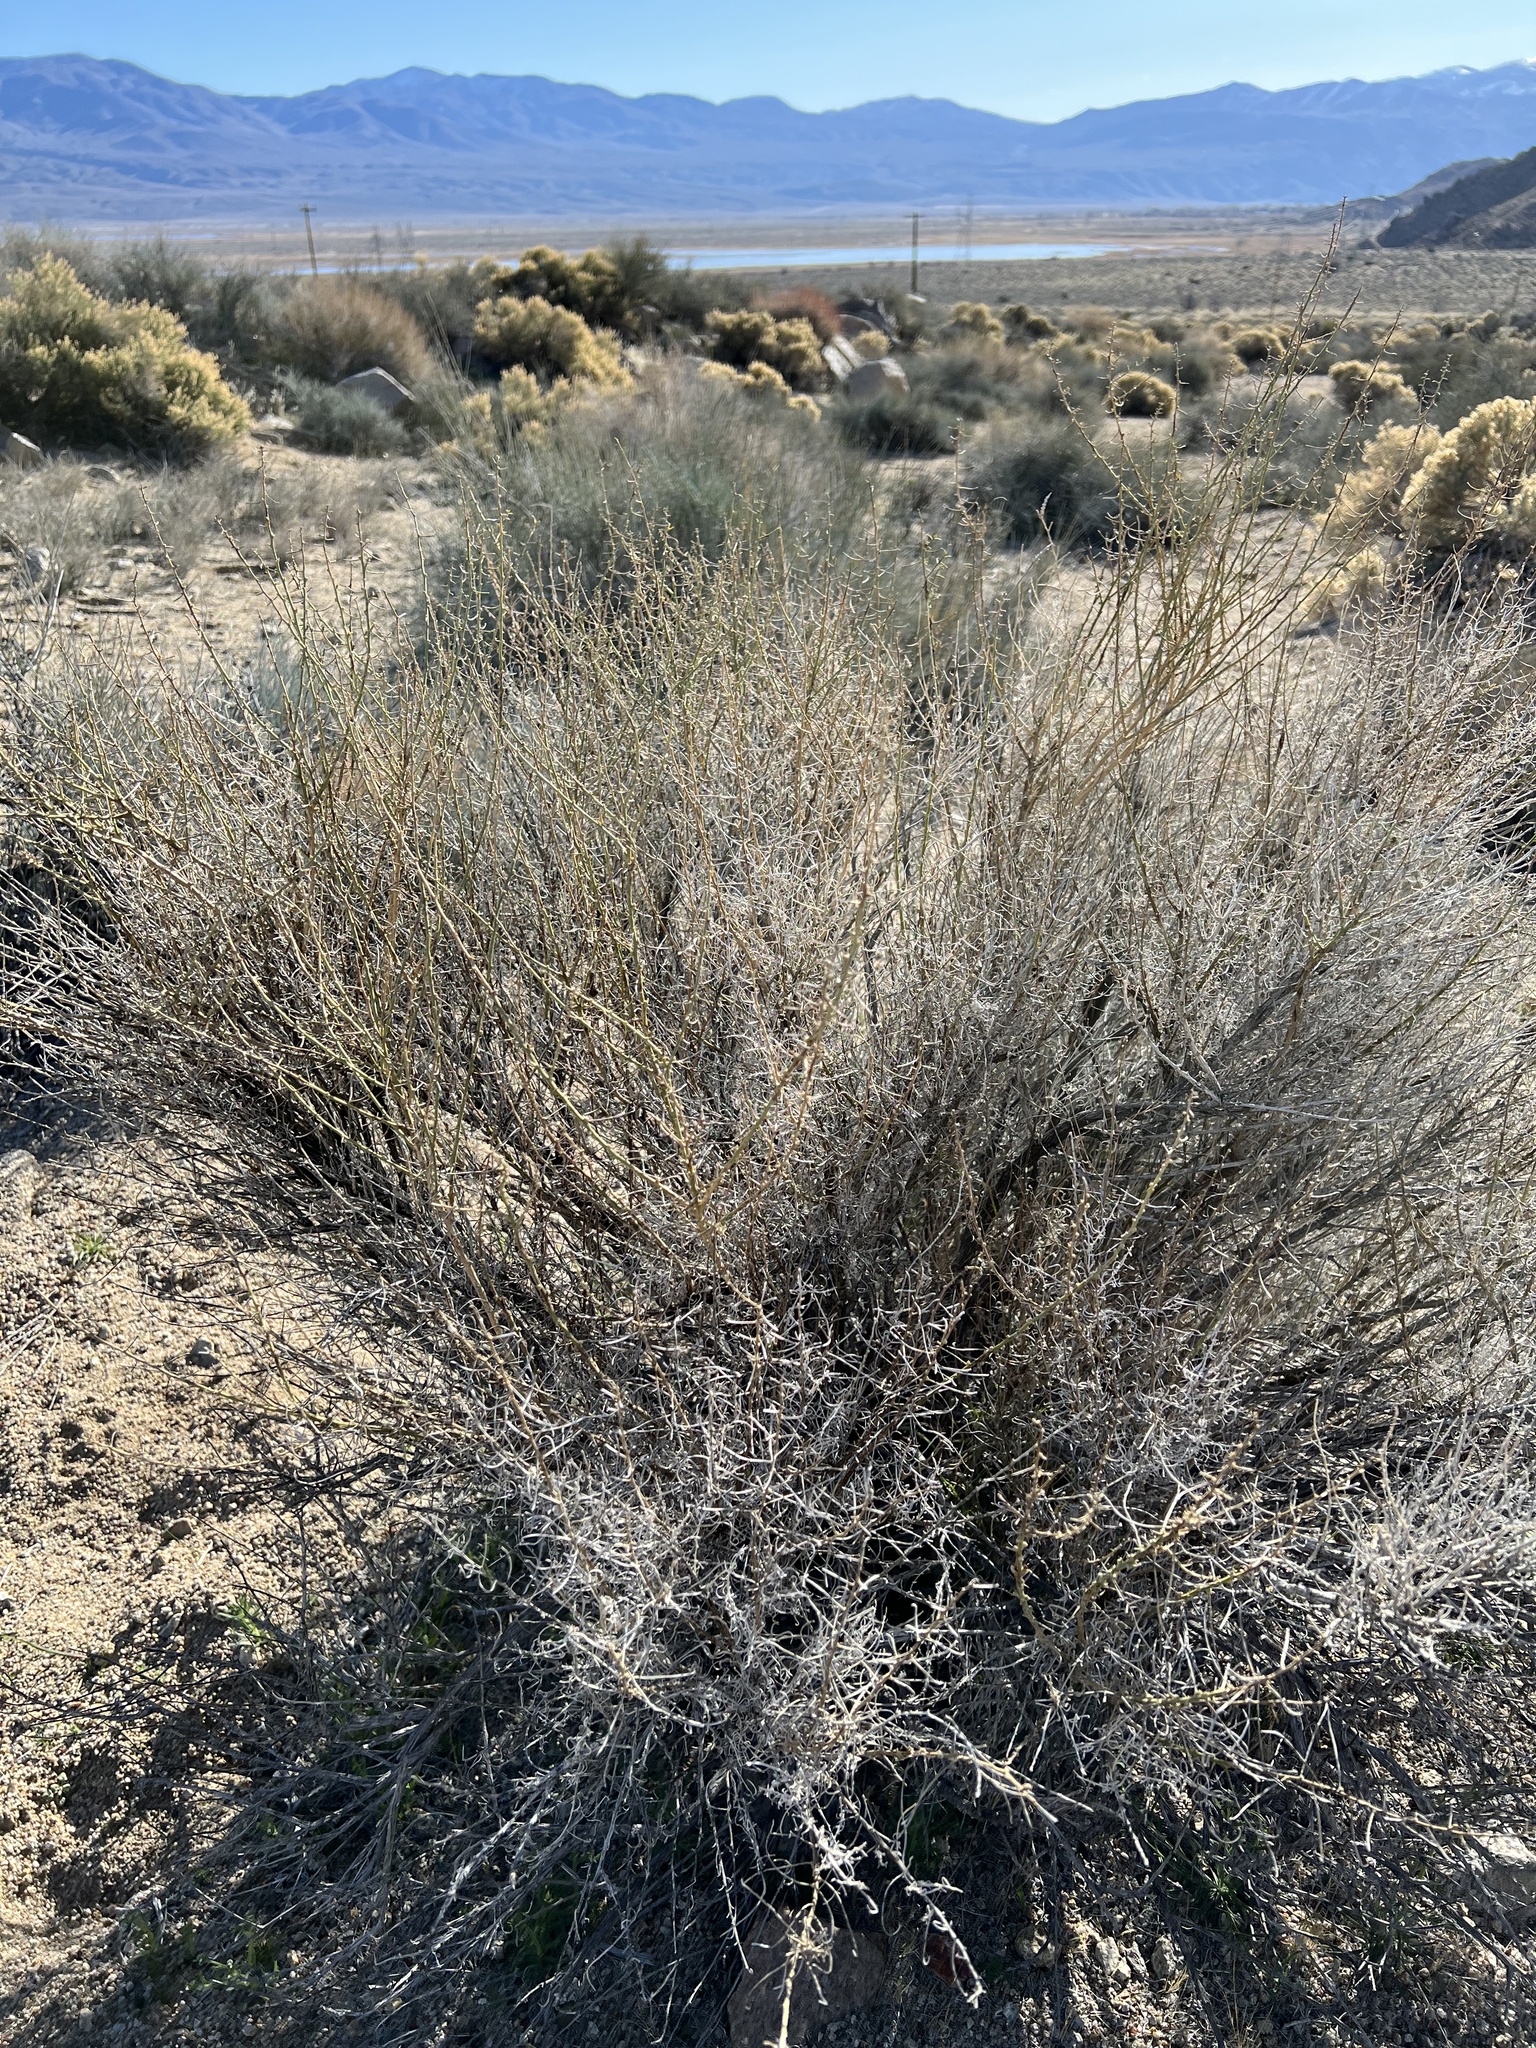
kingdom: Plantae
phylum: Tracheophyta
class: Magnoliopsida
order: Asterales
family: Asteraceae
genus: Ambrosia
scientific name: Ambrosia salsola
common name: Burrobrush
